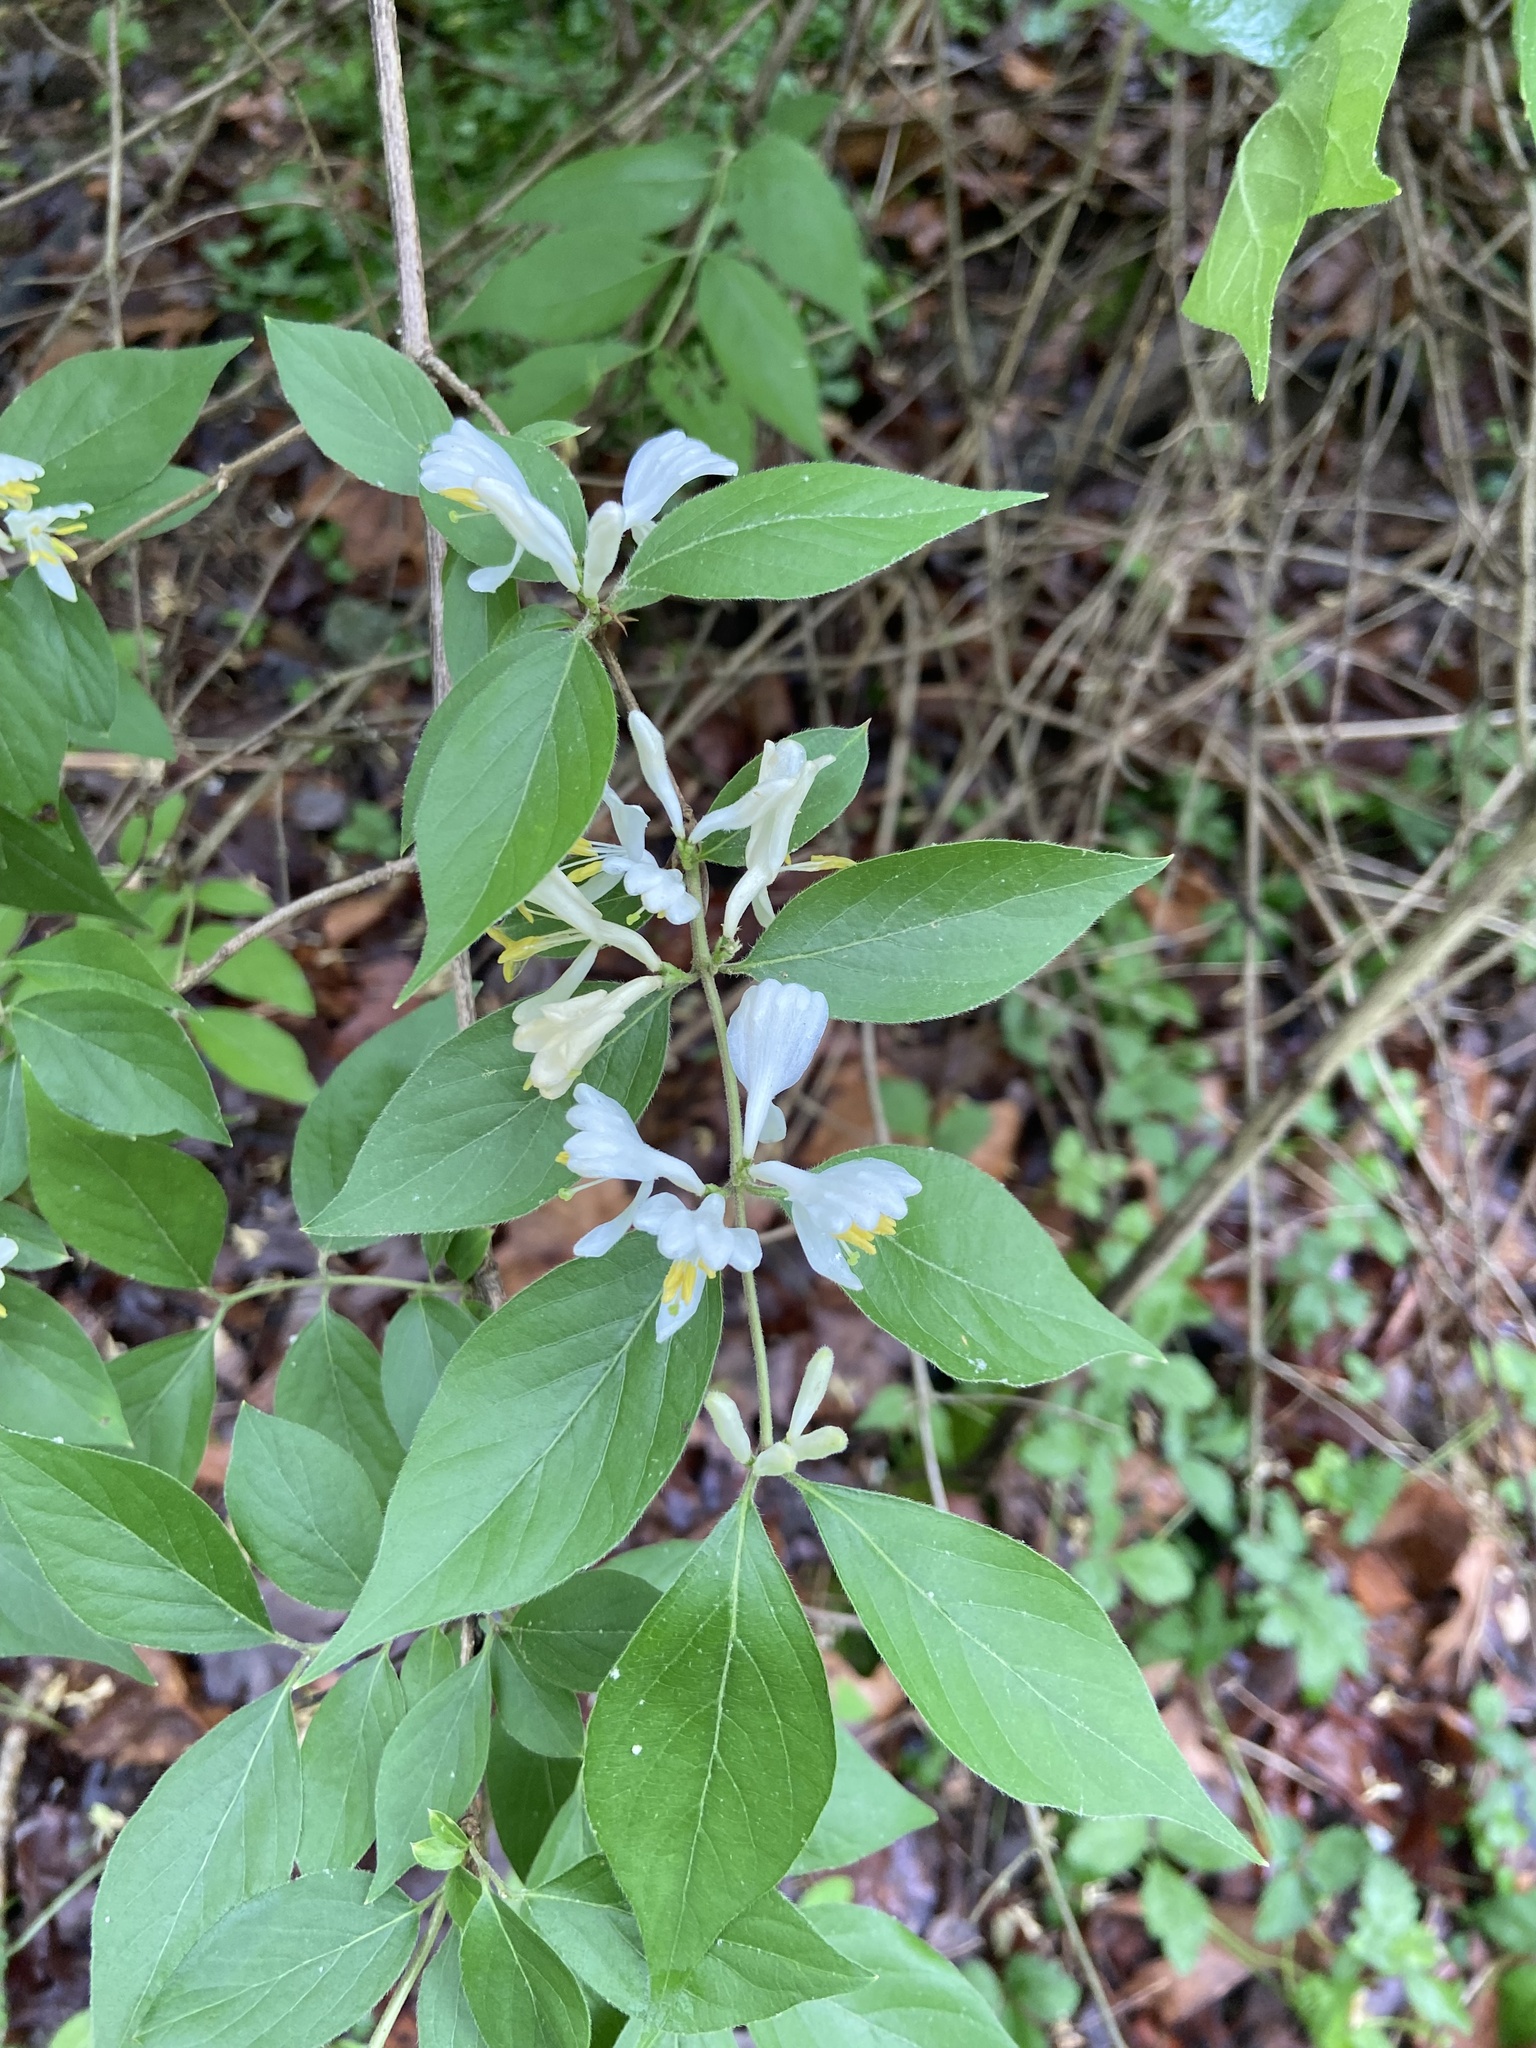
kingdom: Plantae
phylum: Tracheophyta
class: Magnoliopsida
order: Dipsacales
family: Caprifoliaceae
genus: Lonicera
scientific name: Lonicera maackii
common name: Amur honeysuckle
